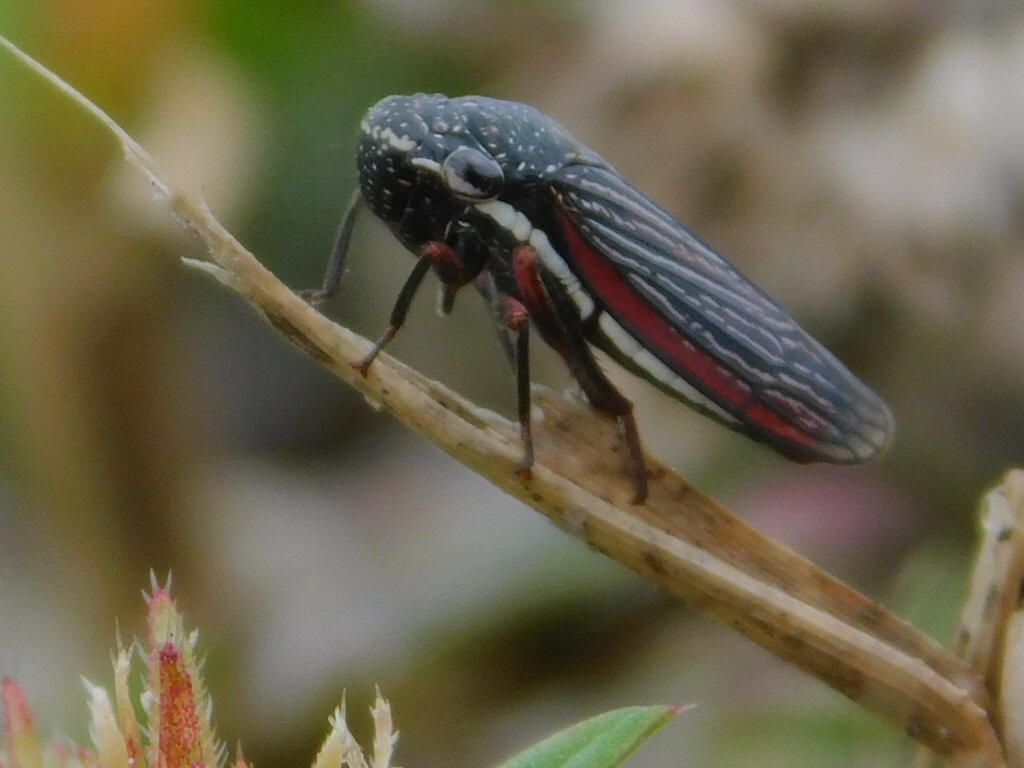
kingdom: Animalia
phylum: Arthropoda
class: Insecta
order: Hemiptera
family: Cicadellidae
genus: Cuerna
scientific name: Cuerna costalis
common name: Lateral-lined sharpshooter
